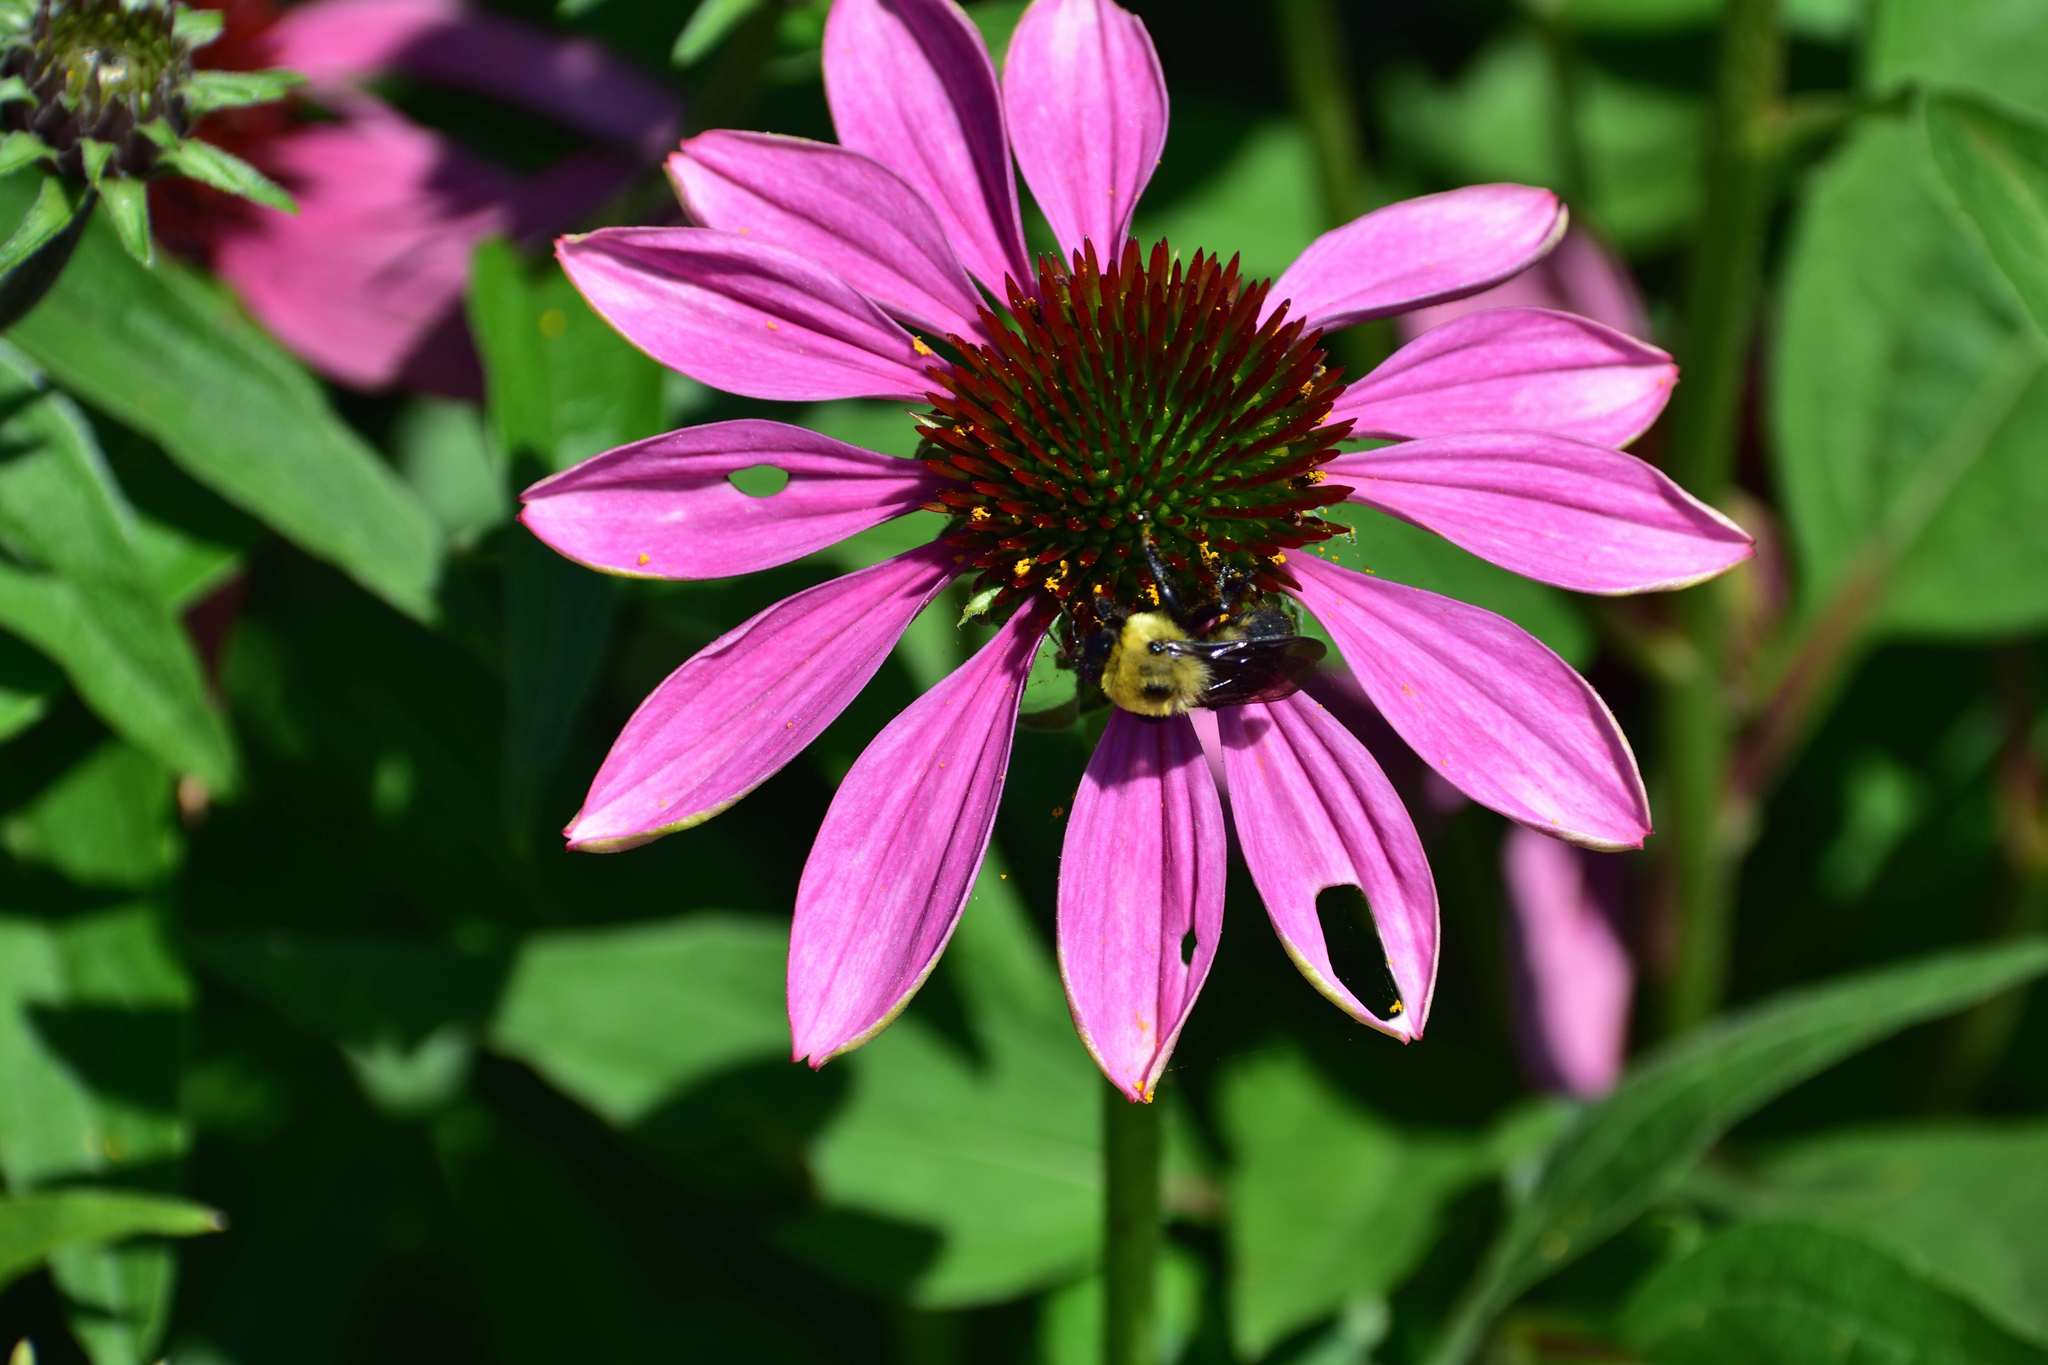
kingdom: Animalia
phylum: Arthropoda
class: Insecta
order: Hymenoptera
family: Apidae
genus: Bombus
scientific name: Bombus griseocollis
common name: Brown-belted bumble bee
